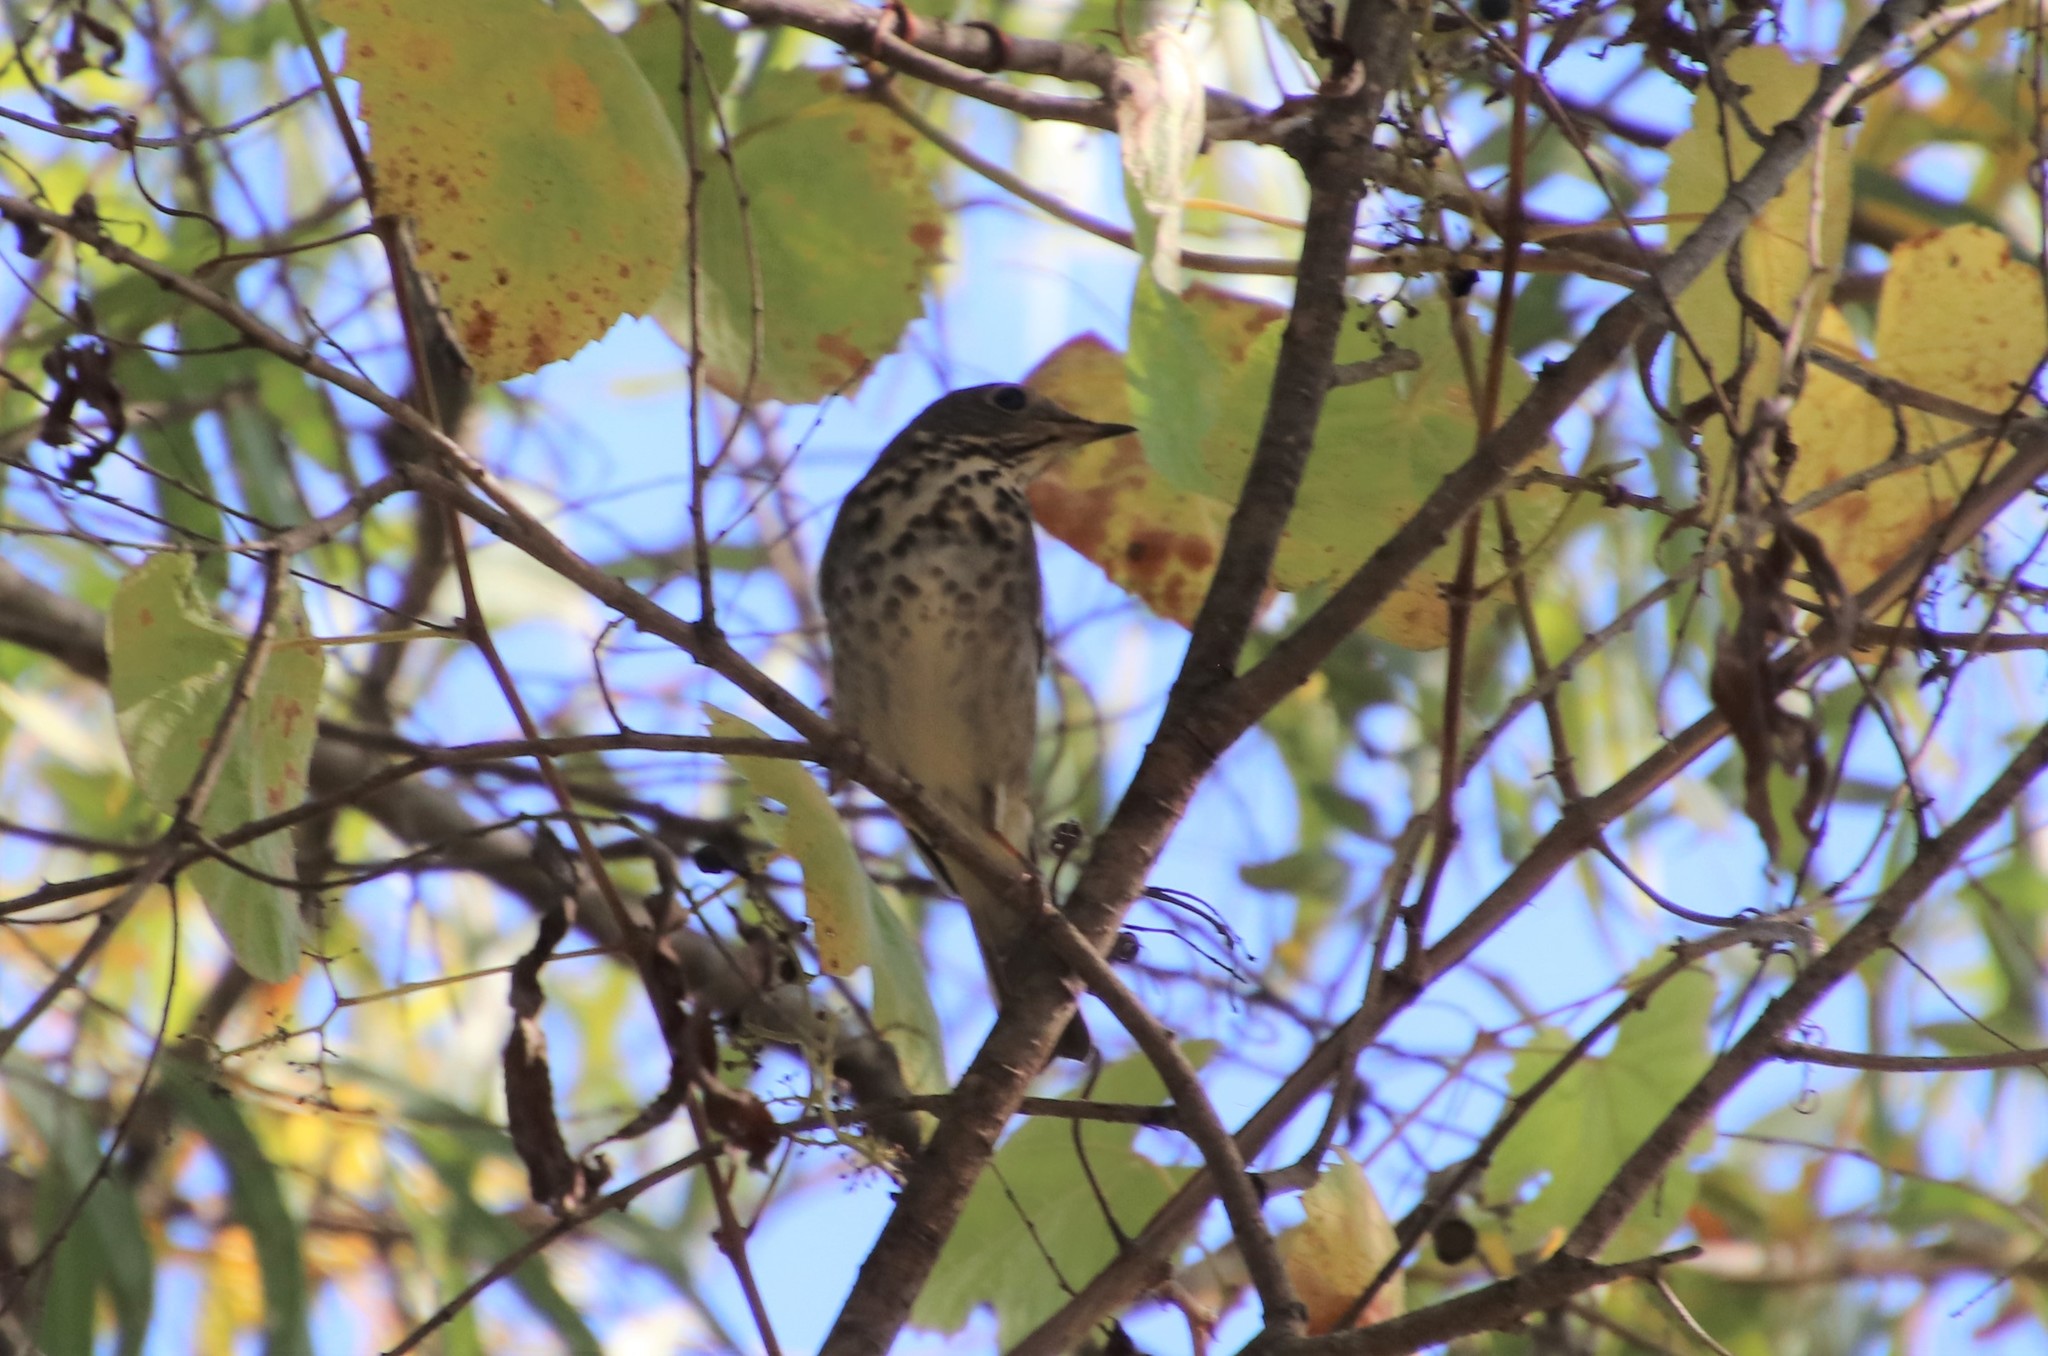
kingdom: Animalia
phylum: Chordata
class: Aves
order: Passeriformes
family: Turdidae
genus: Catharus
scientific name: Catharus guttatus
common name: Hermit thrush
